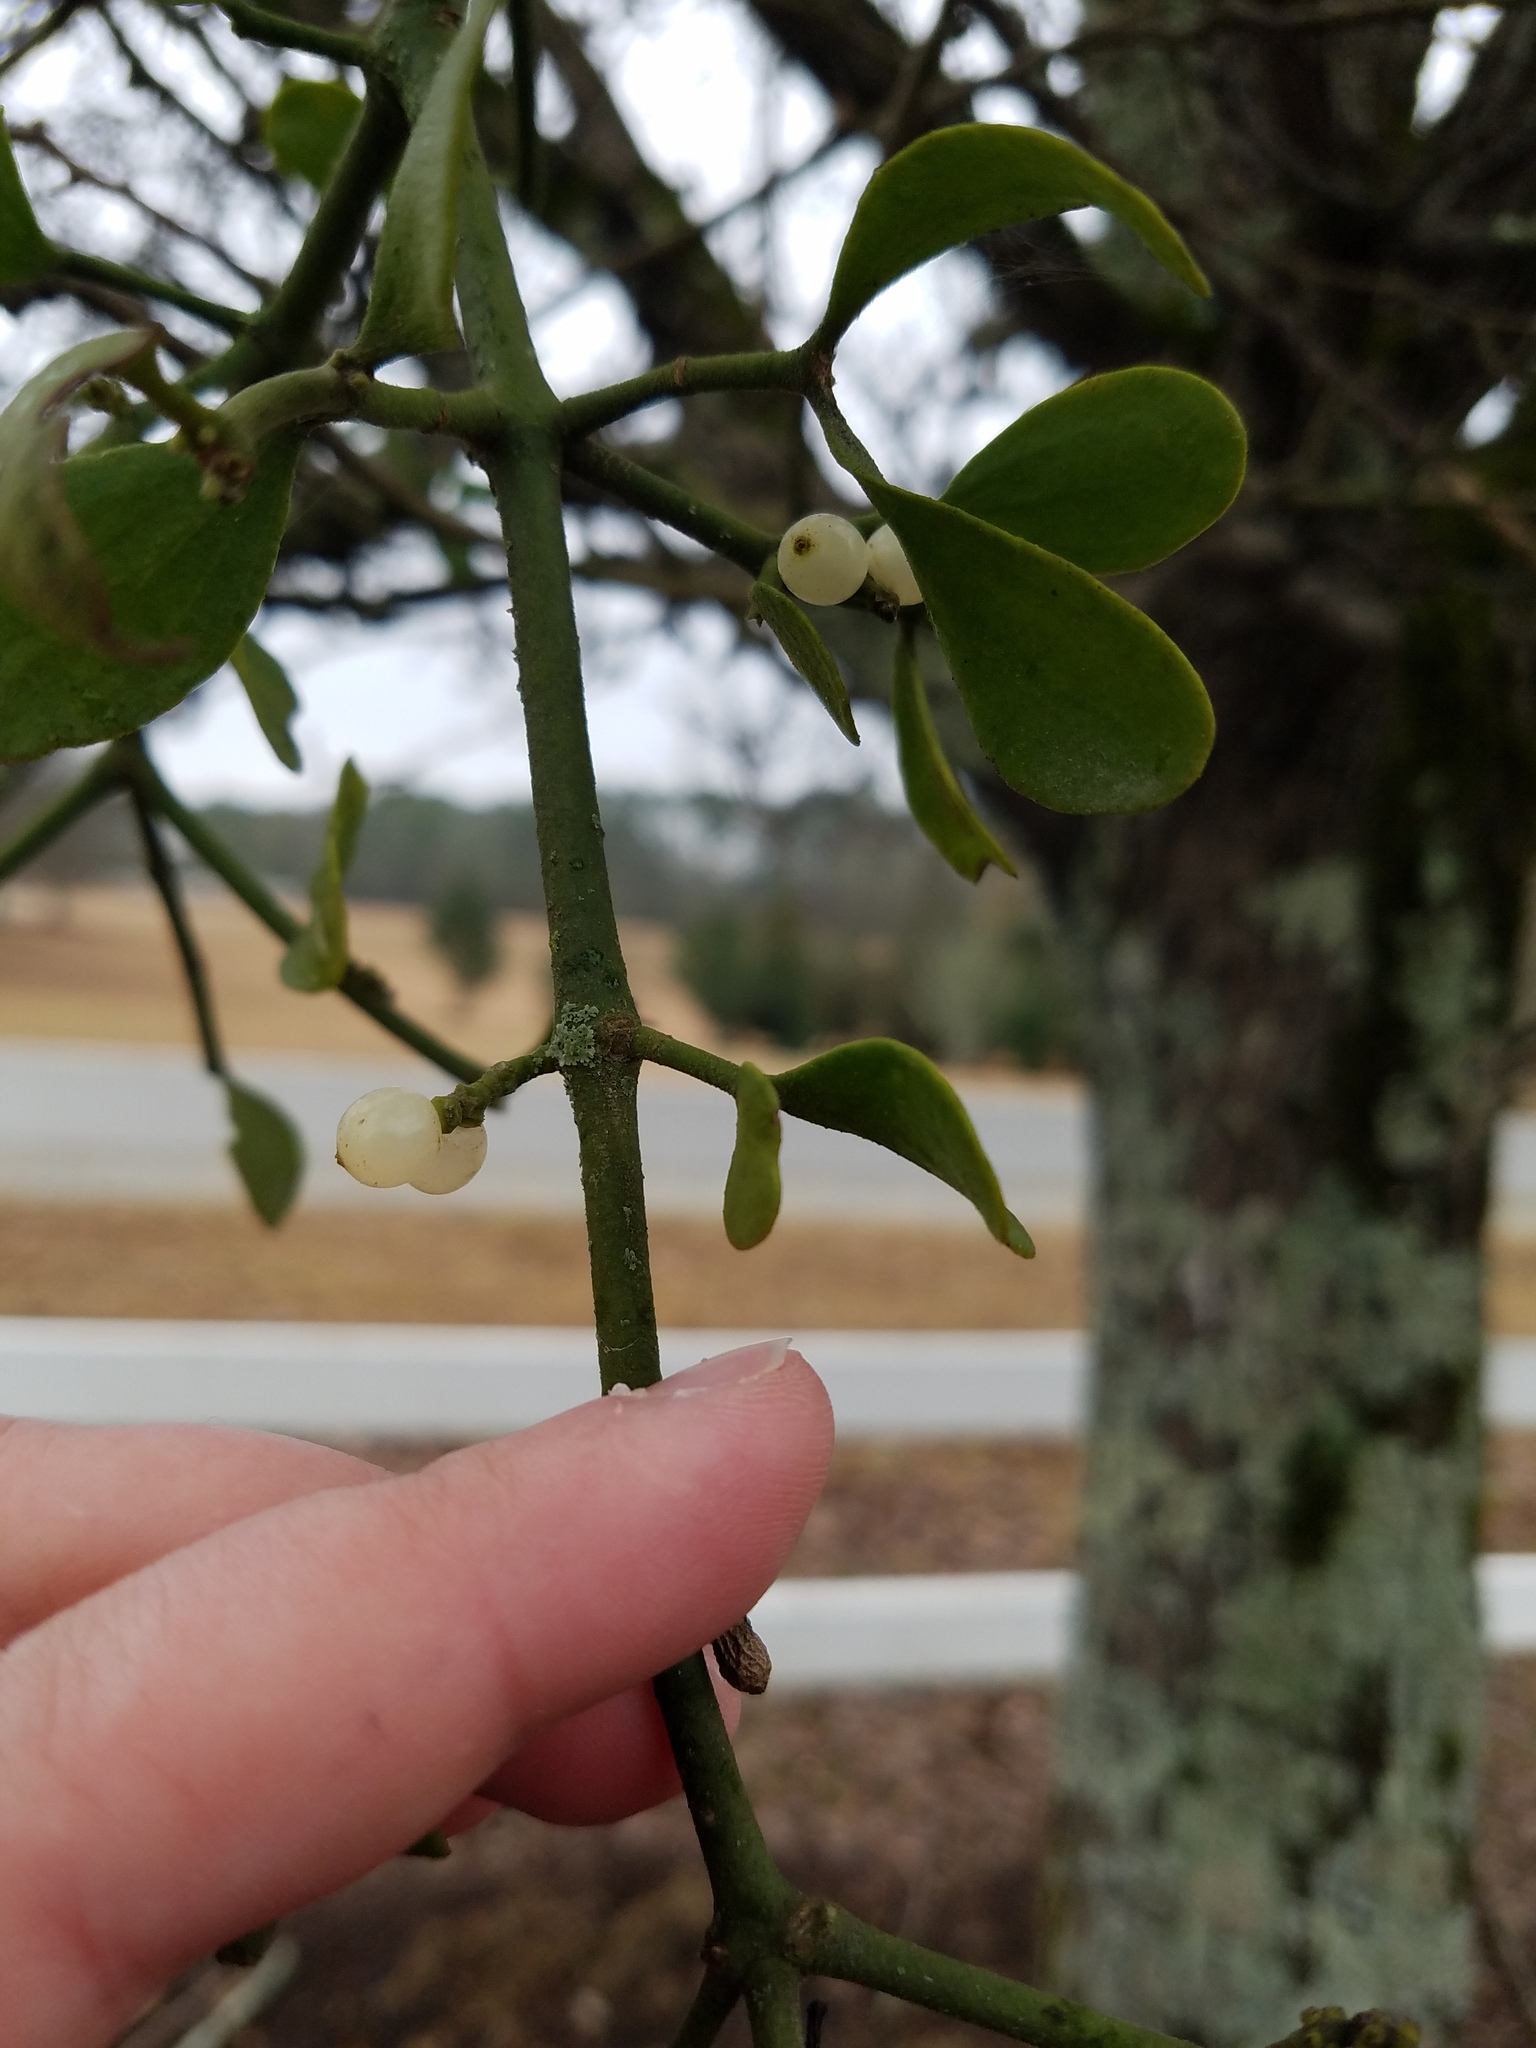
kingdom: Plantae
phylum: Tracheophyta
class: Magnoliopsida
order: Santalales
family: Viscaceae
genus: Phoradendron
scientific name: Phoradendron leucarpum
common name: Pacific mistletoe
